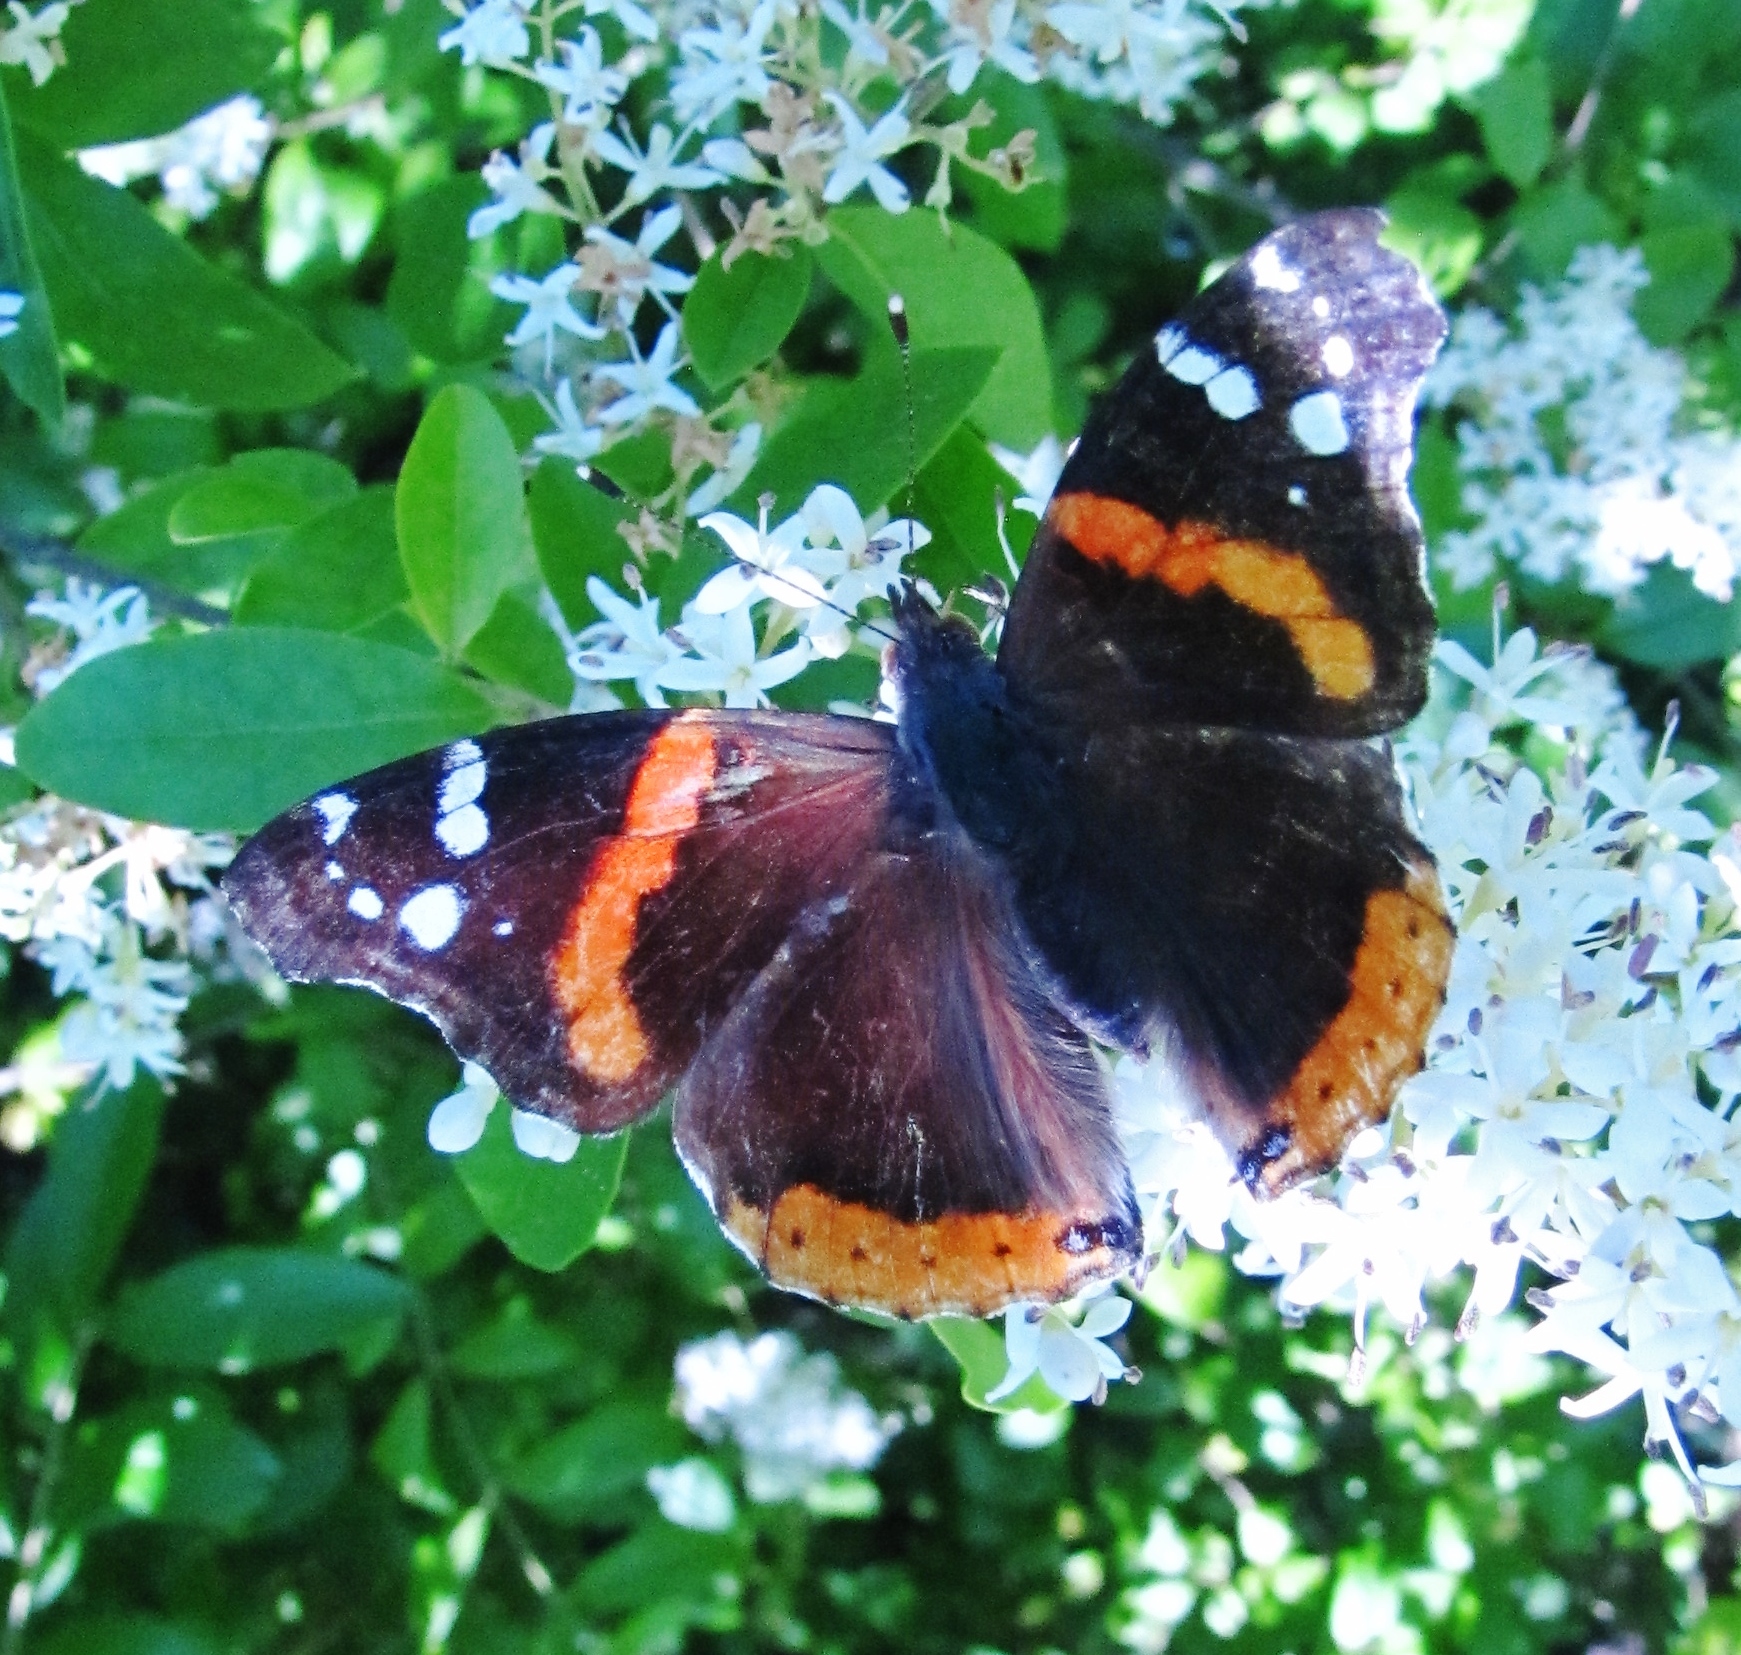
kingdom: Animalia
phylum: Arthropoda
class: Insecta
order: Lepidoptera
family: Nymphalidae
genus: Vanessa
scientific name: Vanessa atalanta
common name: Red admiral
